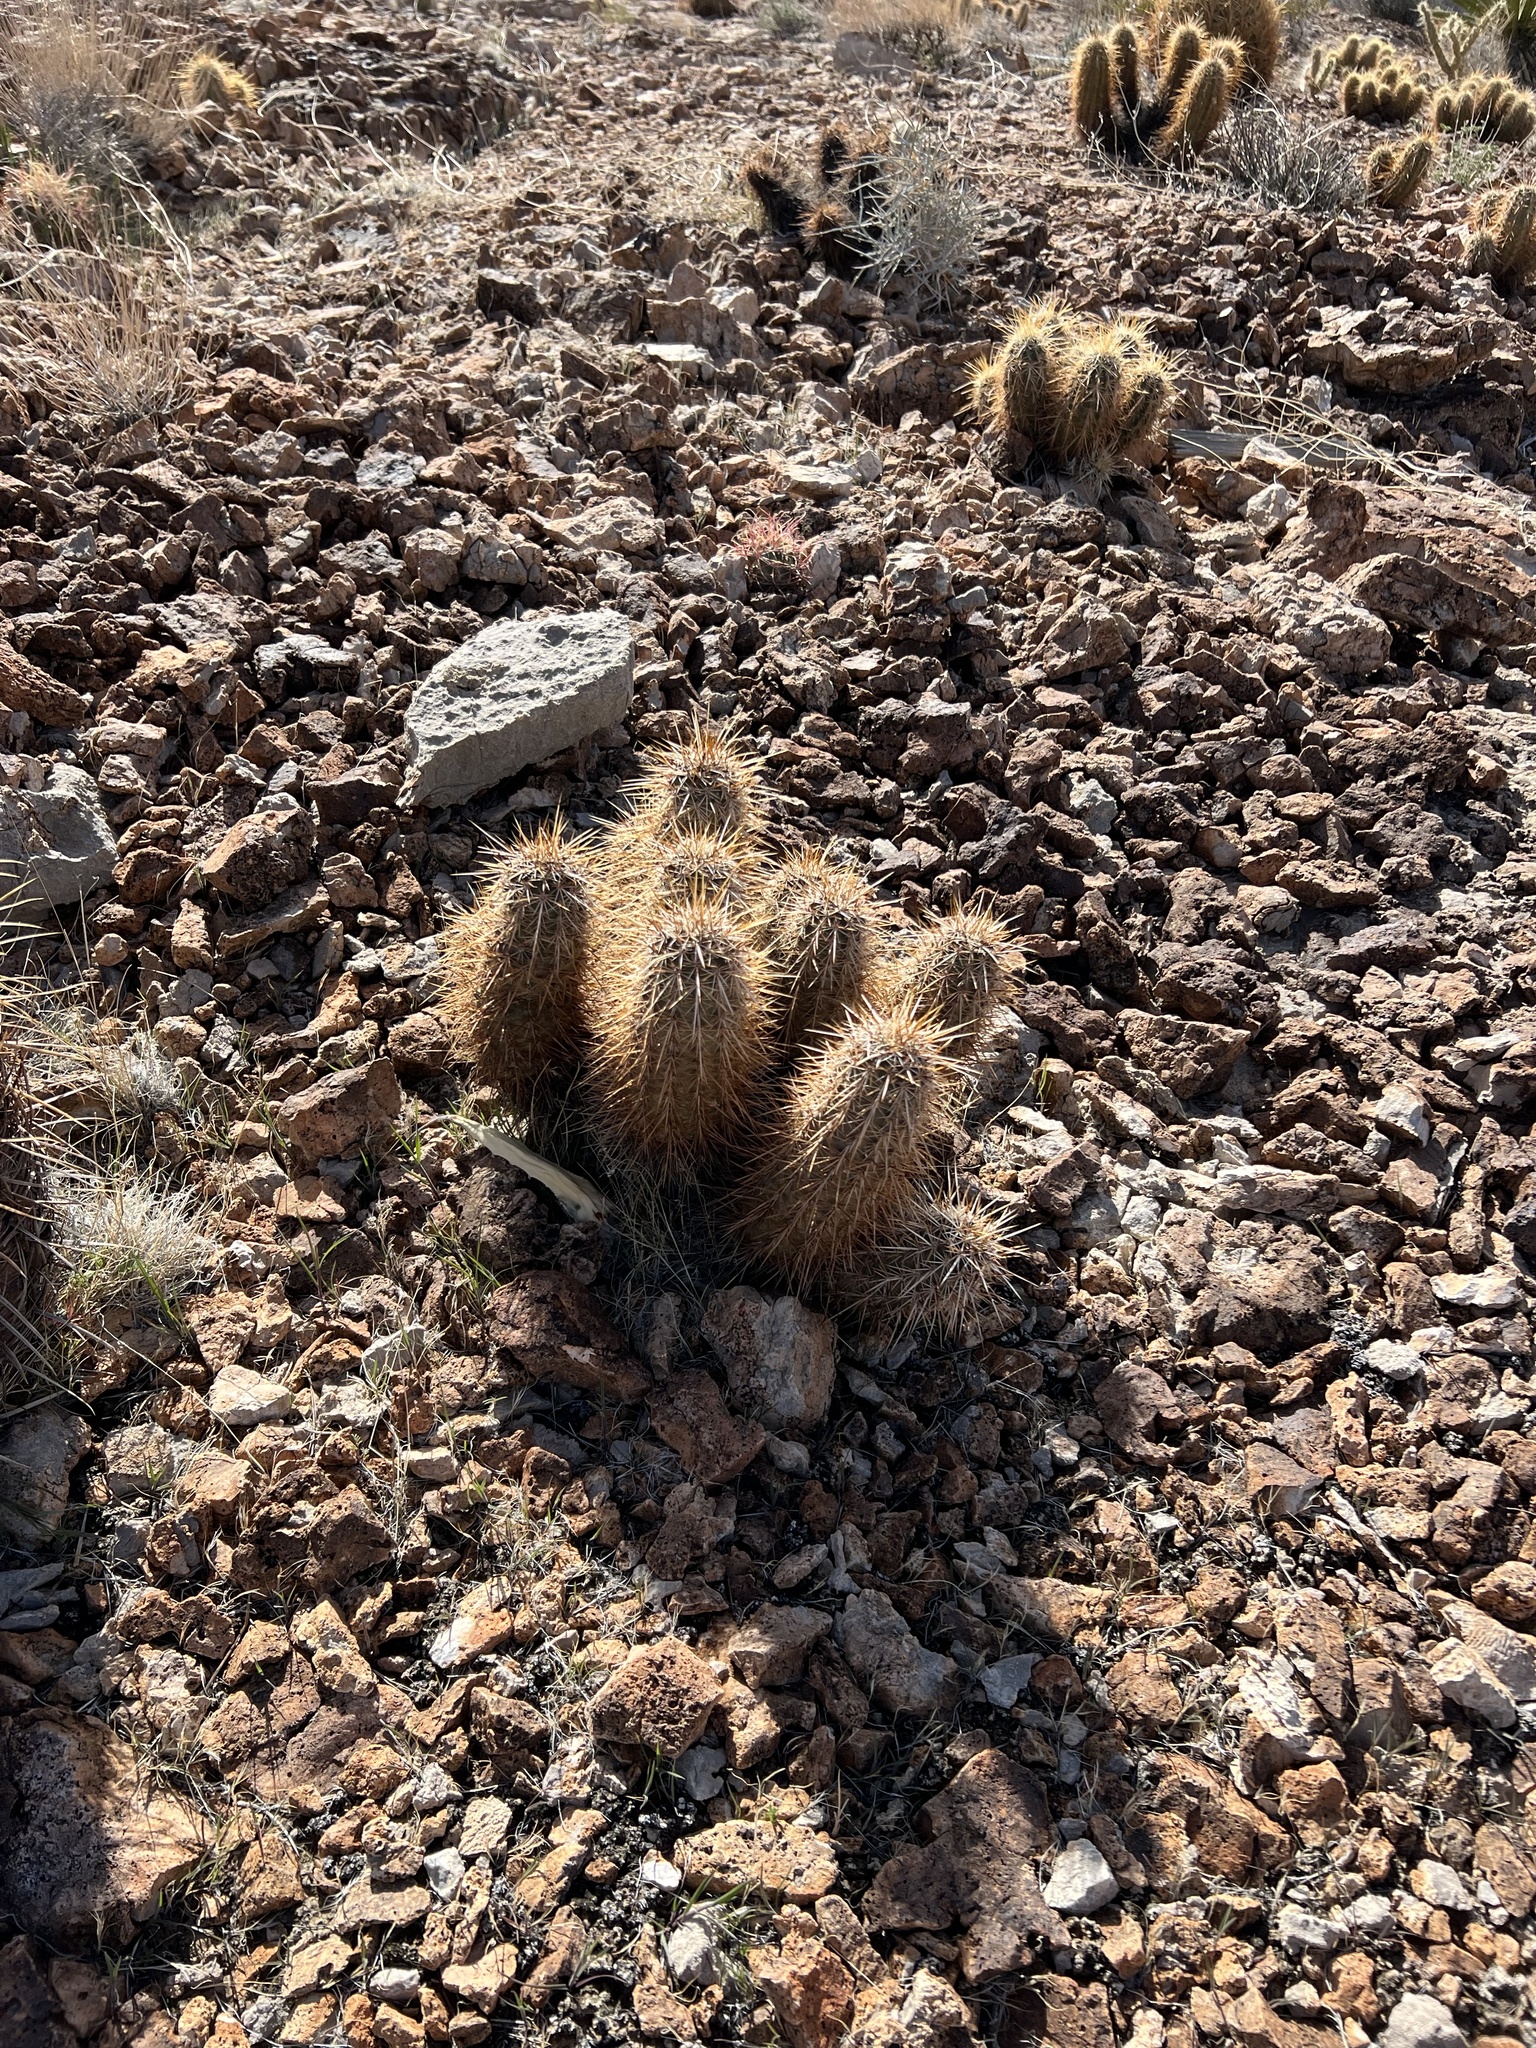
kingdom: Plantae
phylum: Tracheophyta
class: Magnoliopsida
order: Caryophyllales
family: Cactaceae
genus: Echinocereus
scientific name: Echinocereus engelmannii
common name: Engelmann's hedgehog cactus
